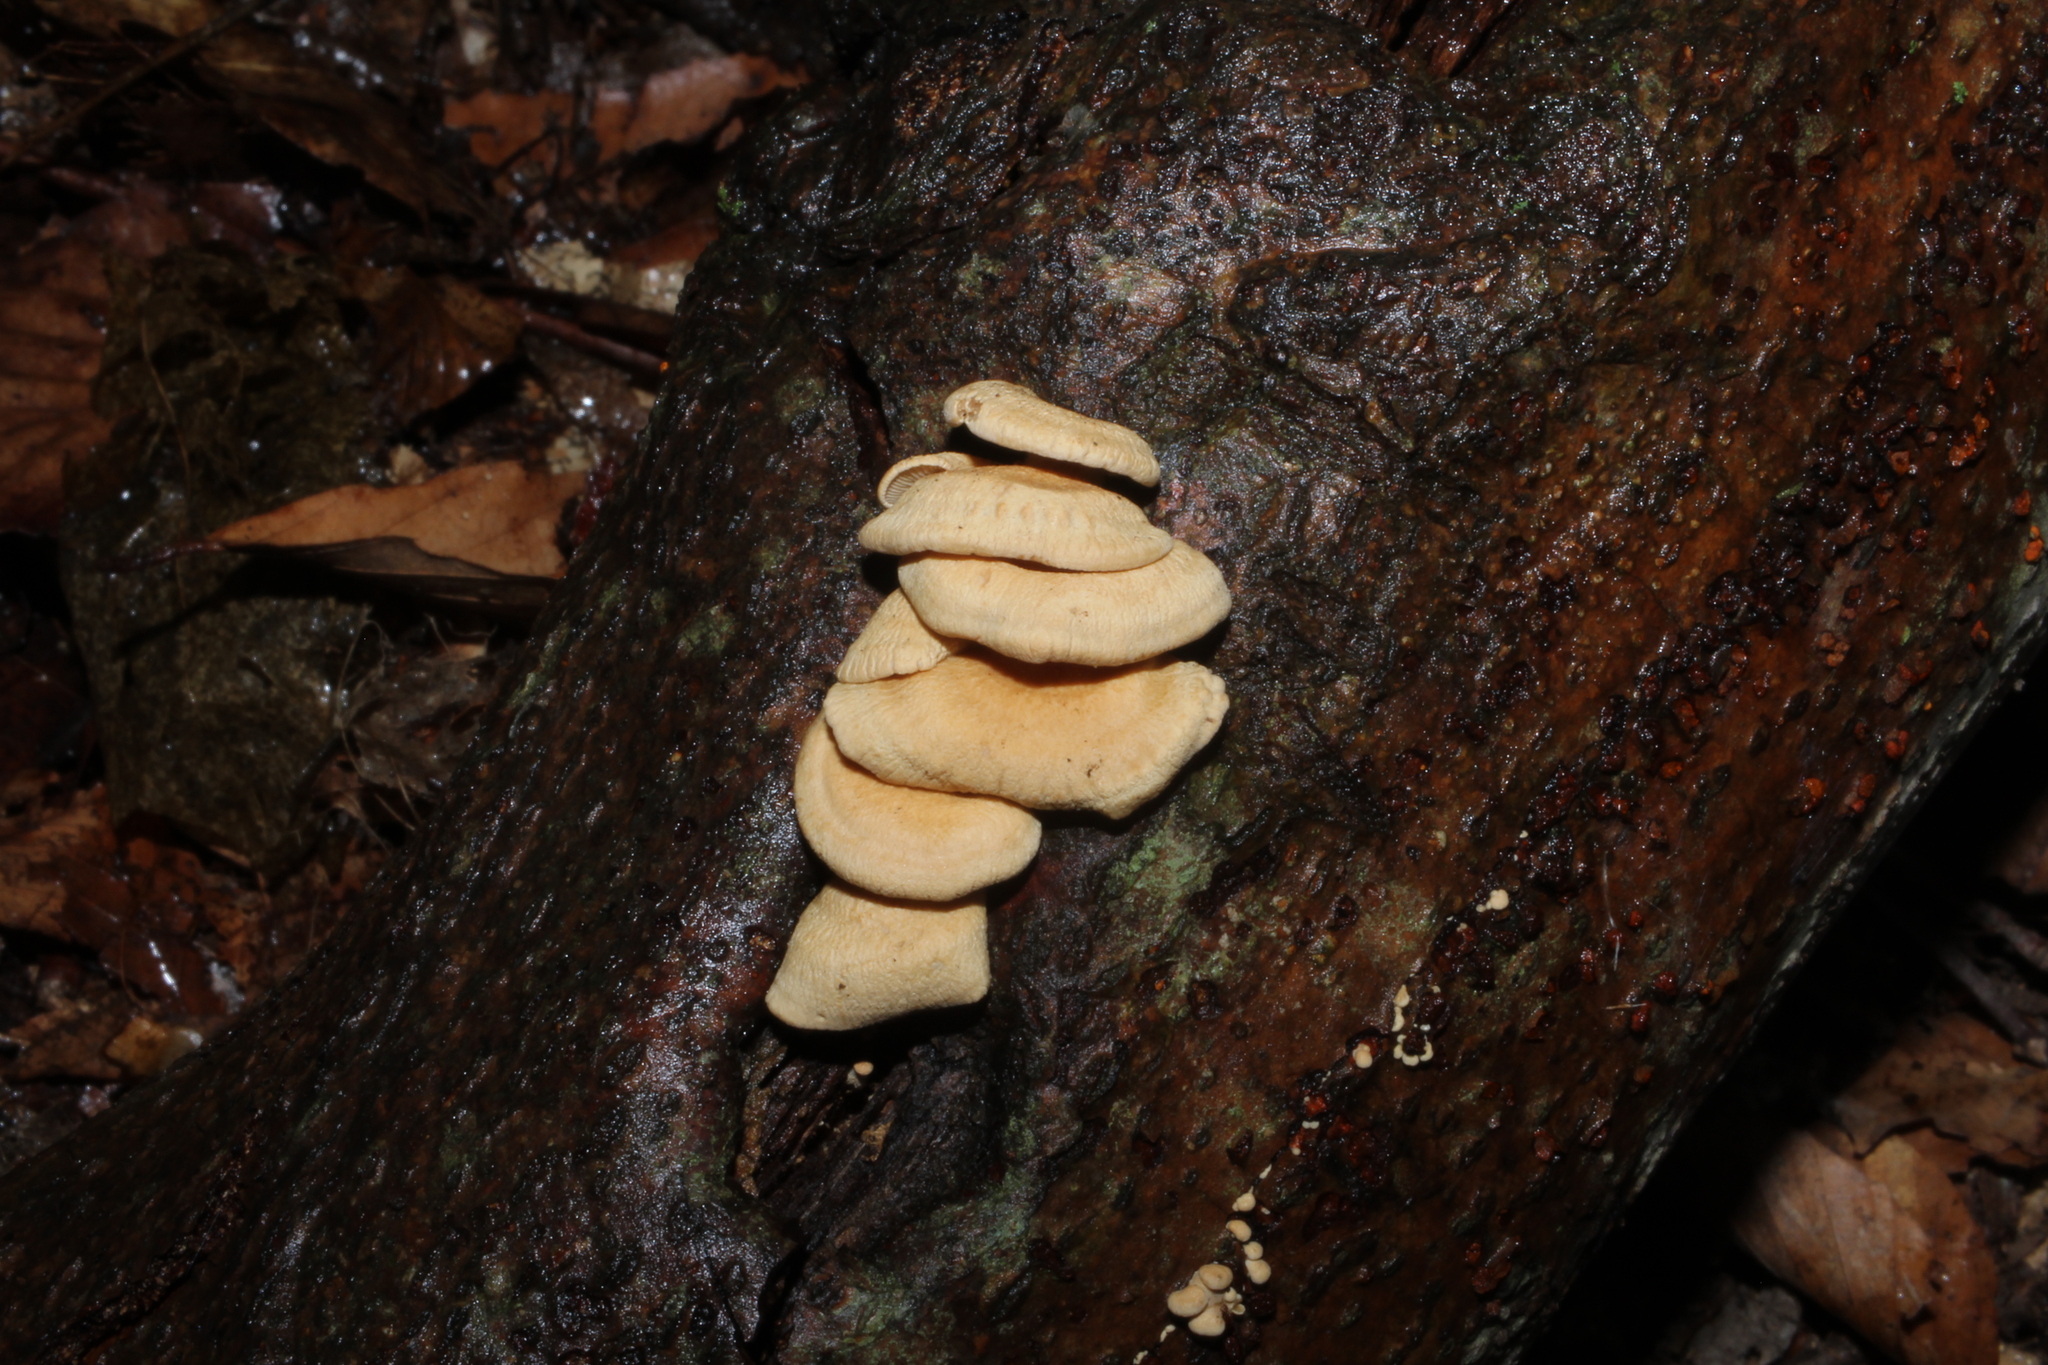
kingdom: Fungi
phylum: Basidiomycota
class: Agaricomycetes
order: Agaricales
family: Mycenaceae
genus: Panellus
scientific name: Panellus stipticus
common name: Bitter oysterling
